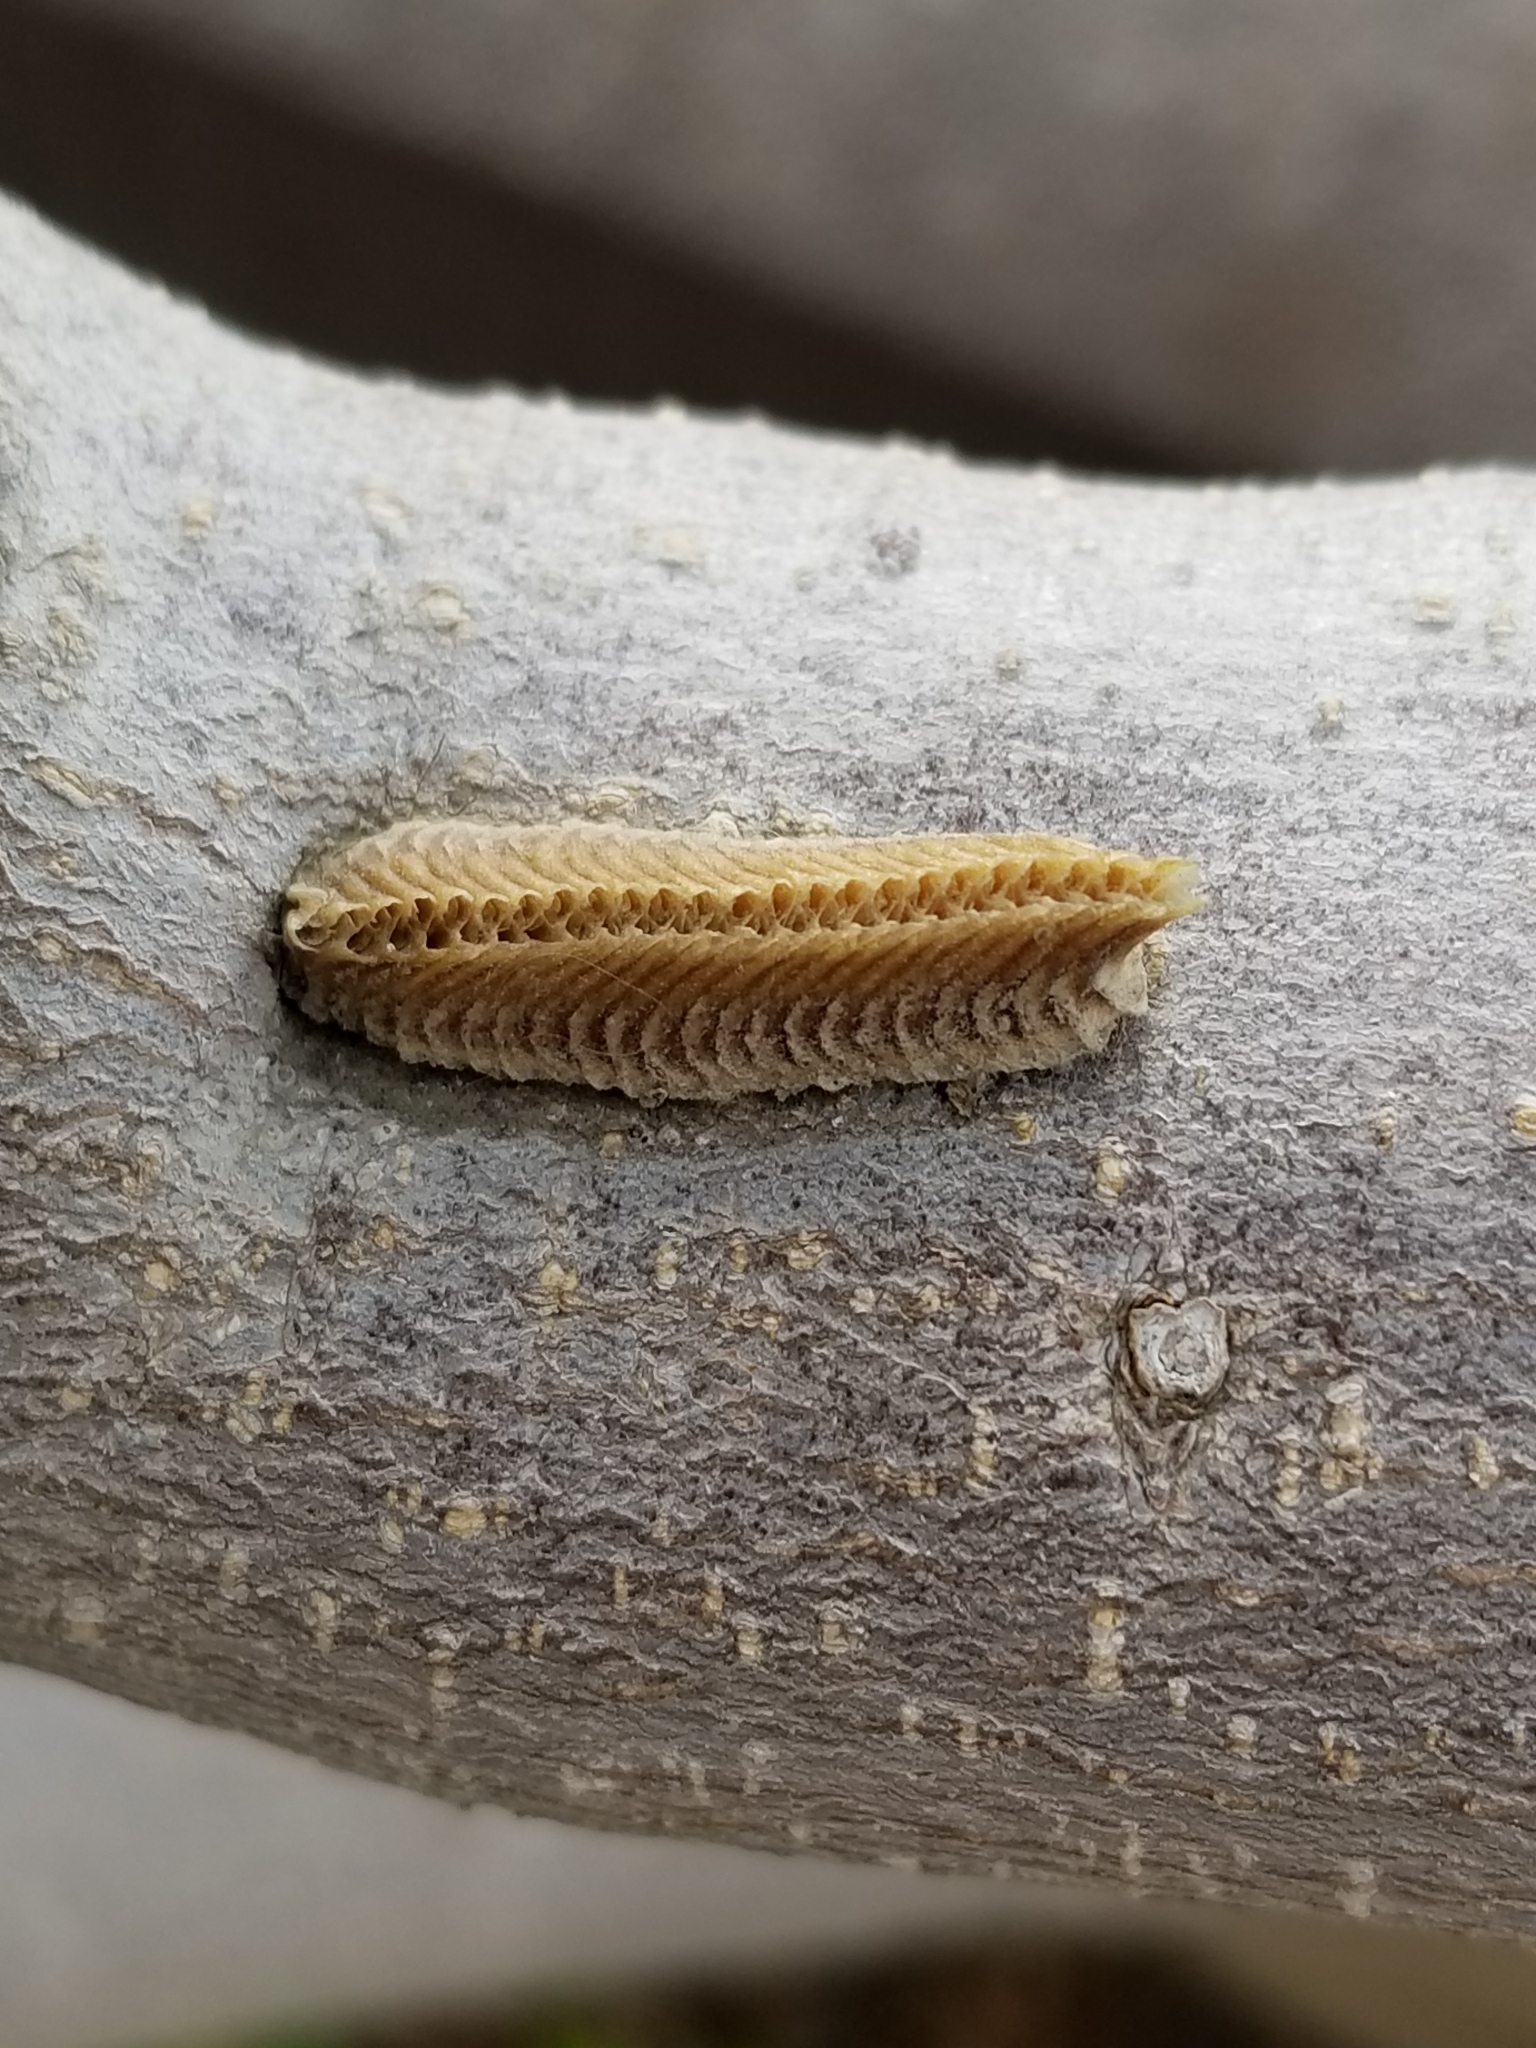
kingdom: Animalia
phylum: Arthropoda
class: Insecta
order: Mantodea
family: Eremiaphilidae
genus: Iris
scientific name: Iris oratoria
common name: Mediterranean mantis
